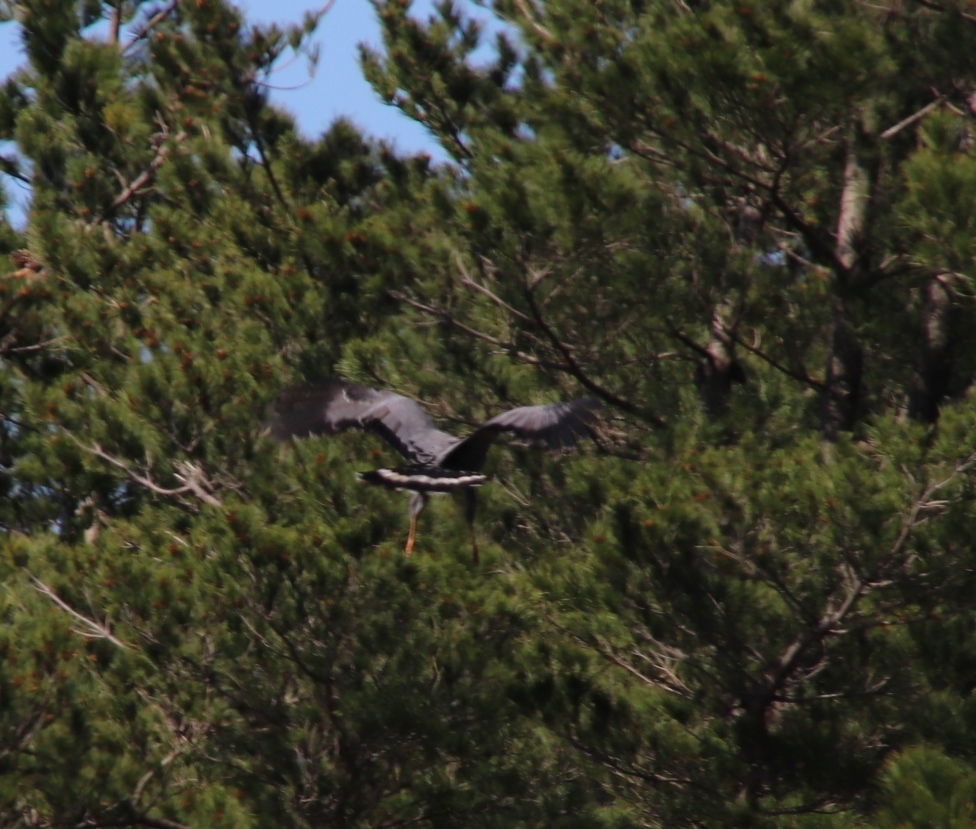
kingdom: Animalia
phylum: Chordata
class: Aves
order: Accipitriformes
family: Accipitridae
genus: Polyboroides
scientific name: Polyboroides typus
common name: African harrier-hawk
